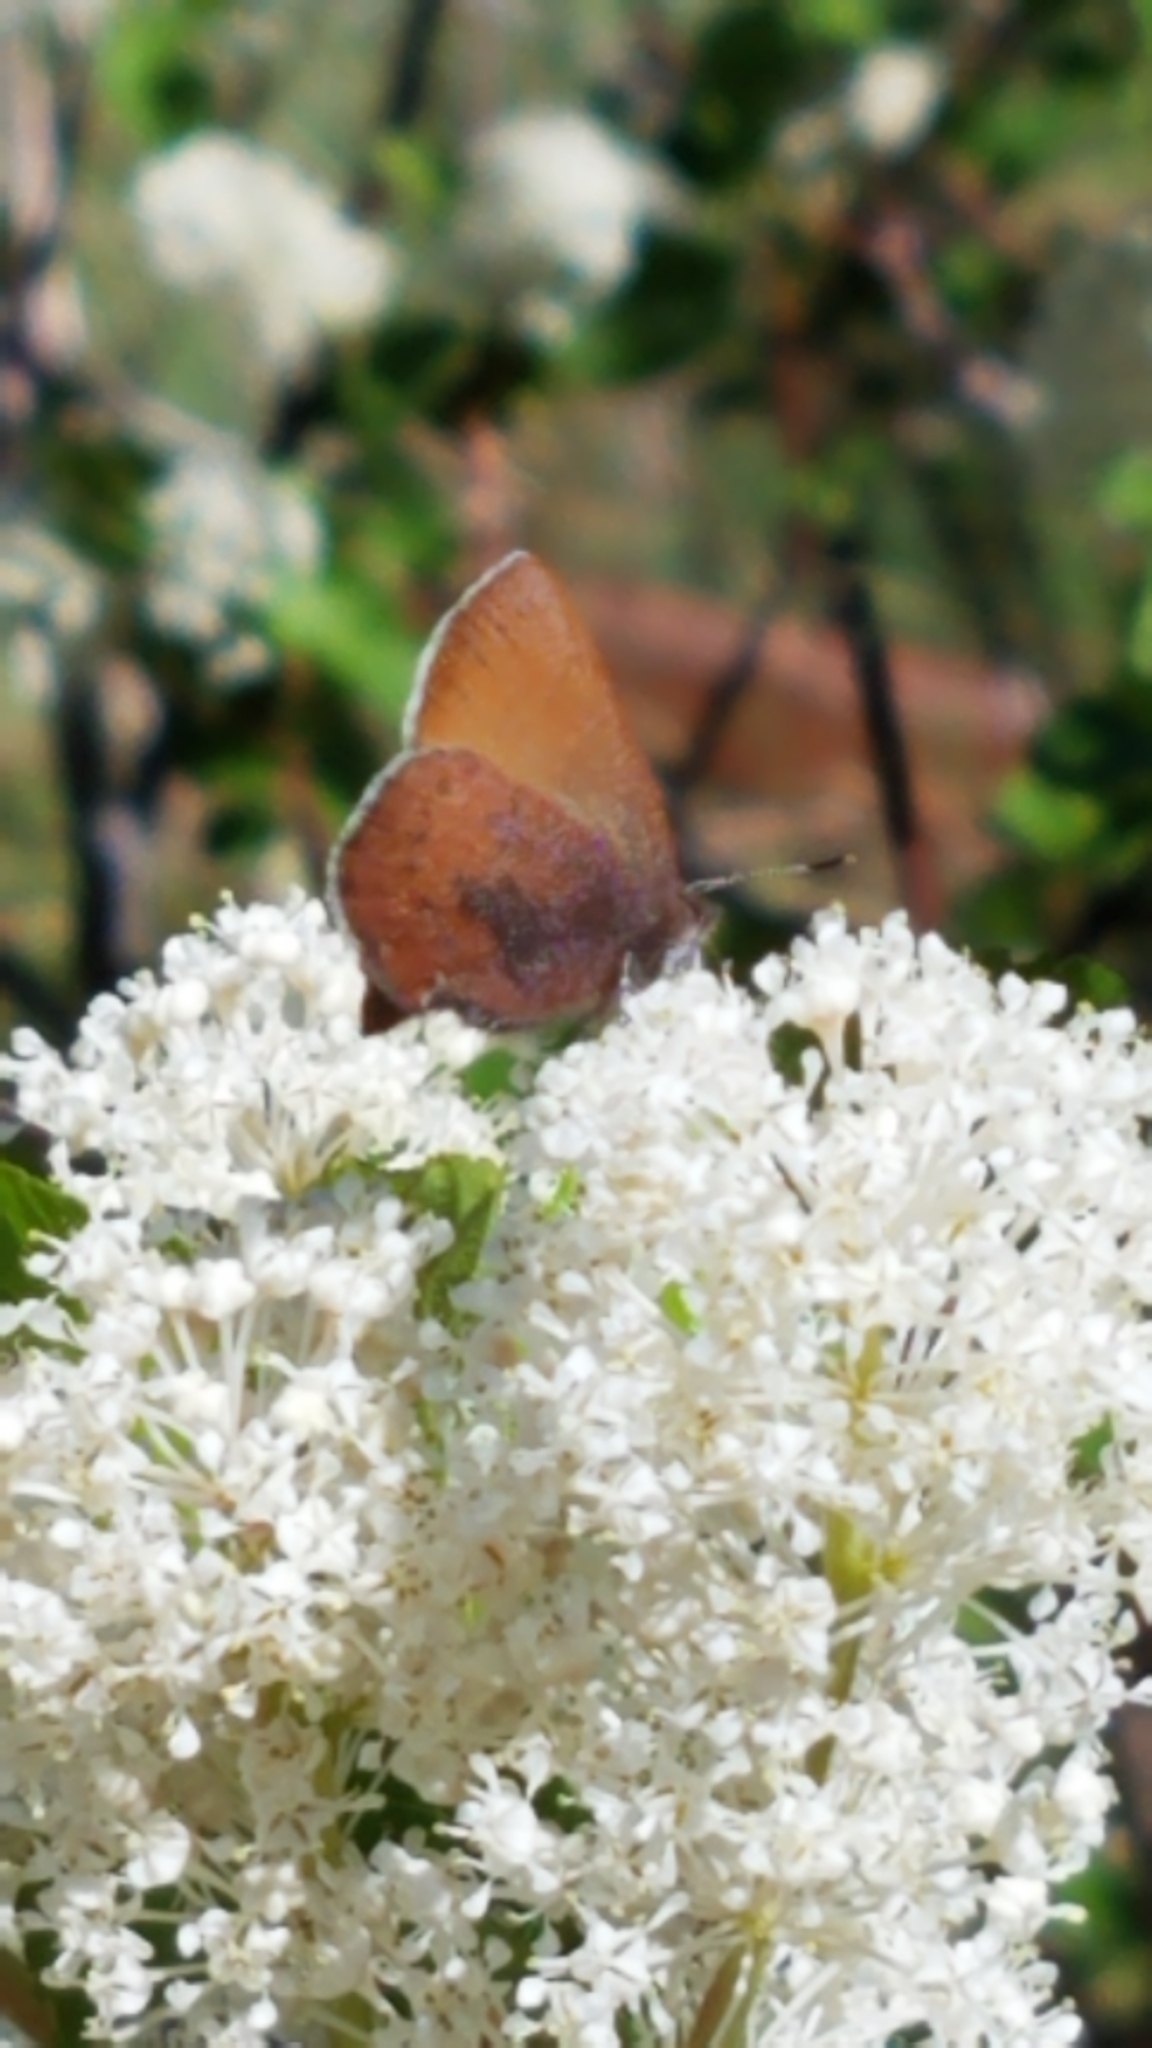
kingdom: Animalia
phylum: Arthropoda
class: Insecta
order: Lepidoptera
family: Lycaenidae
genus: Incisalia
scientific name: Incisalia irioides
